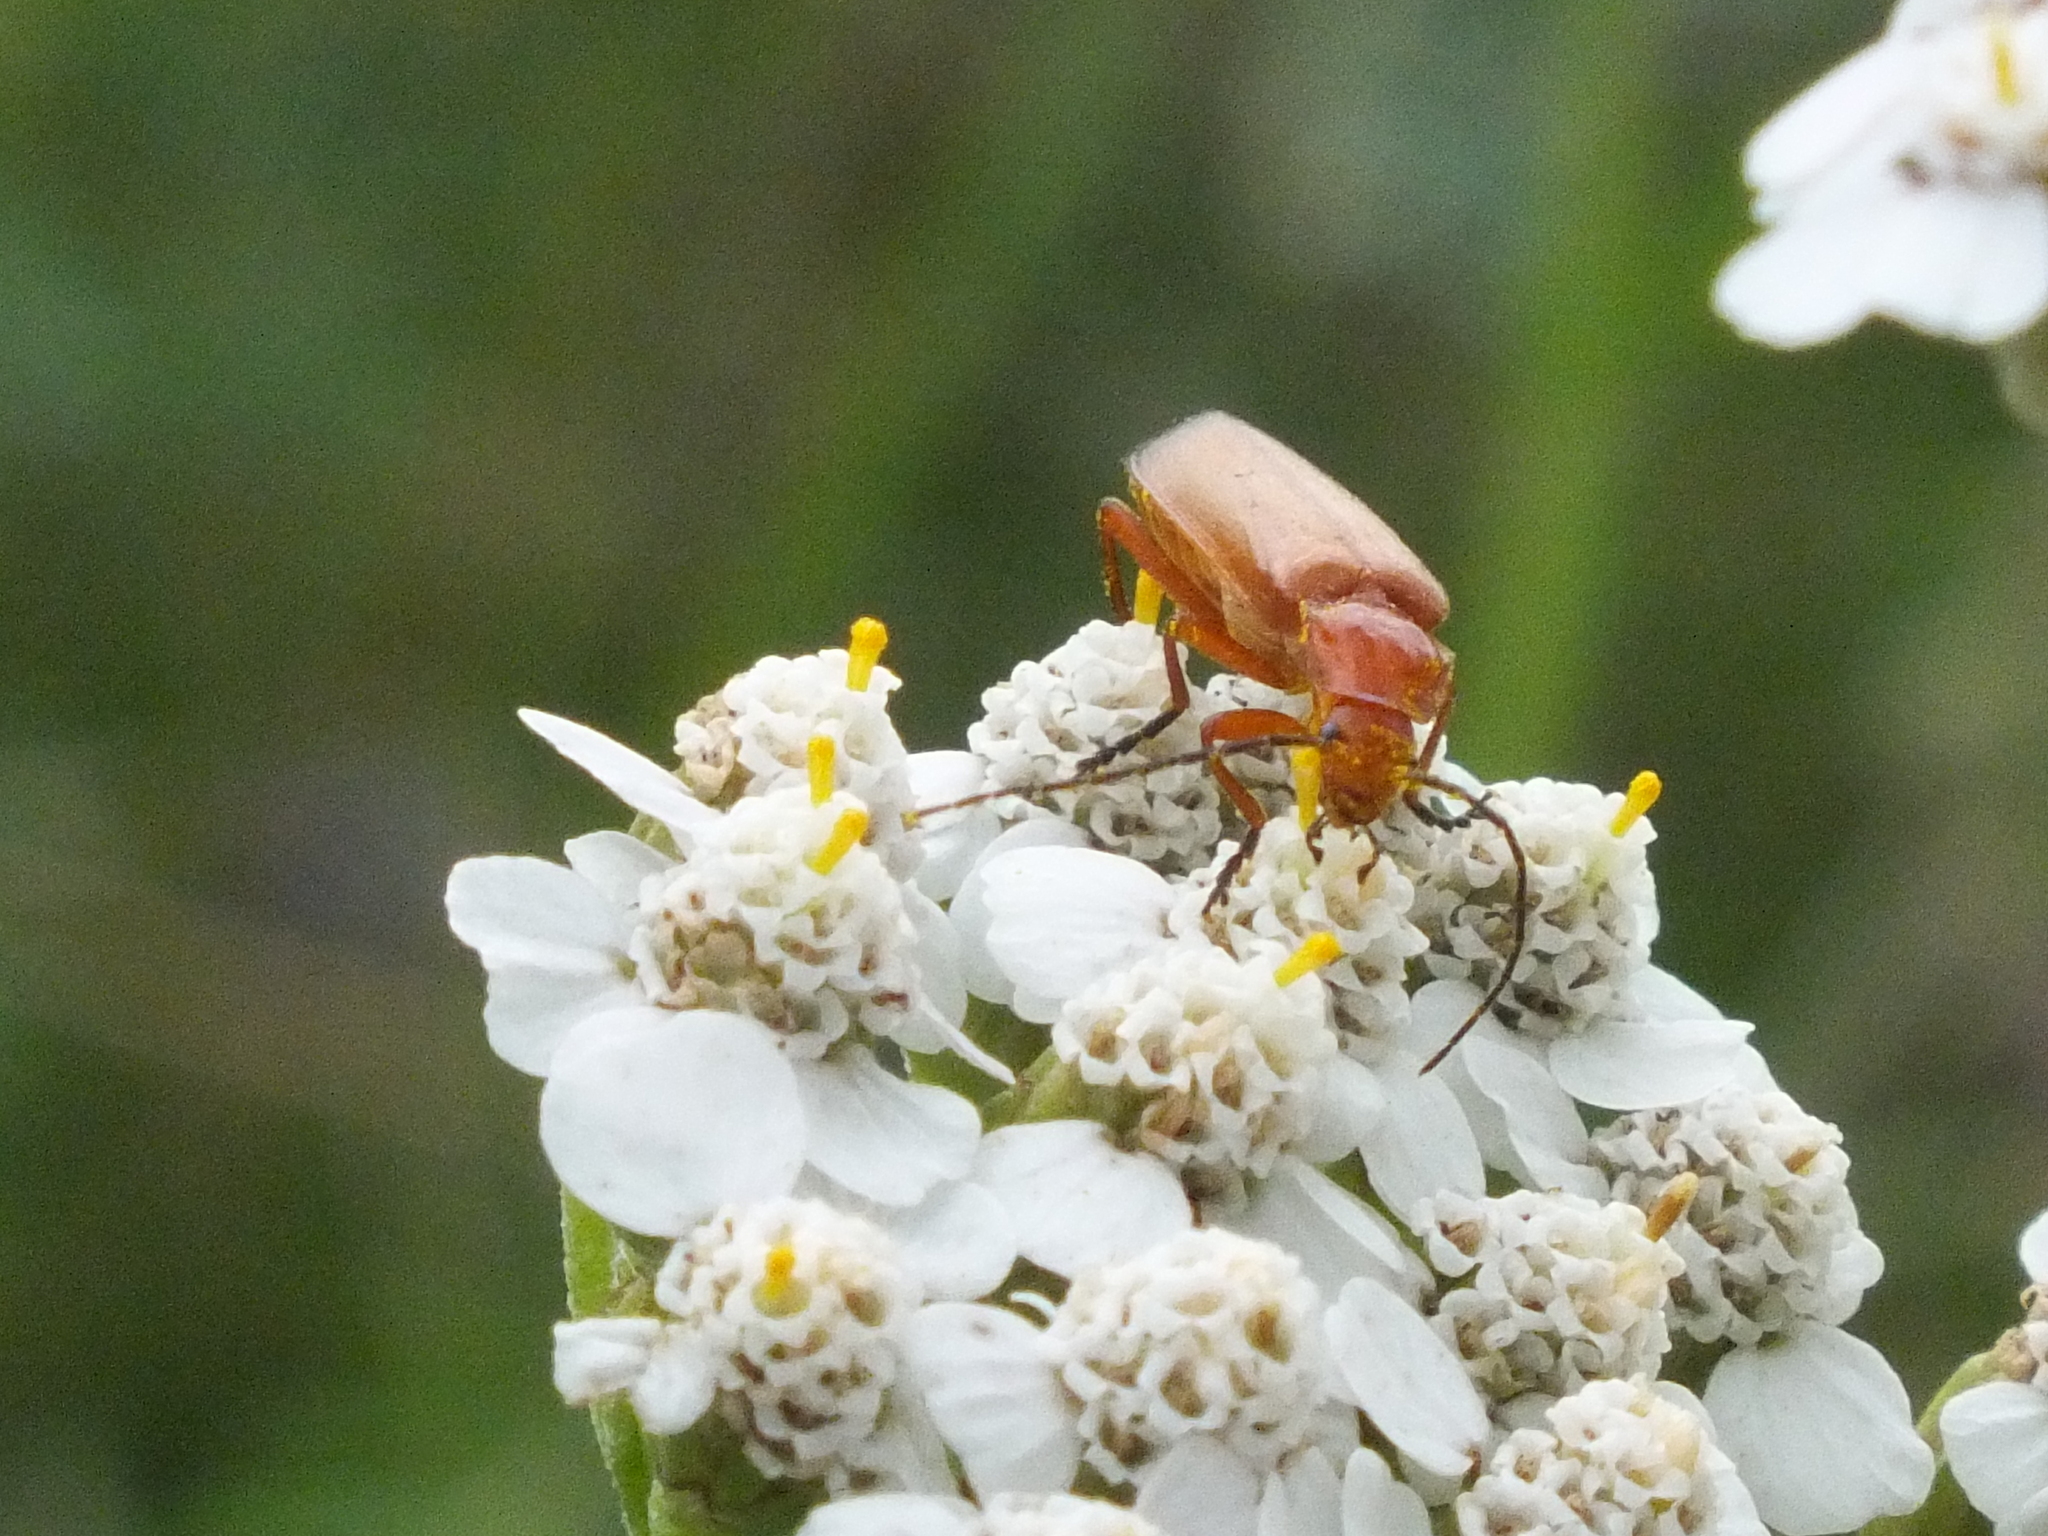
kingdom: Animalia
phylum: Arthropoda
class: Insecta
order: Coleoptera
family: Cantharidae
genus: Rhagonycha
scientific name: Rhagonycha fulva
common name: Common red soldier beetle
